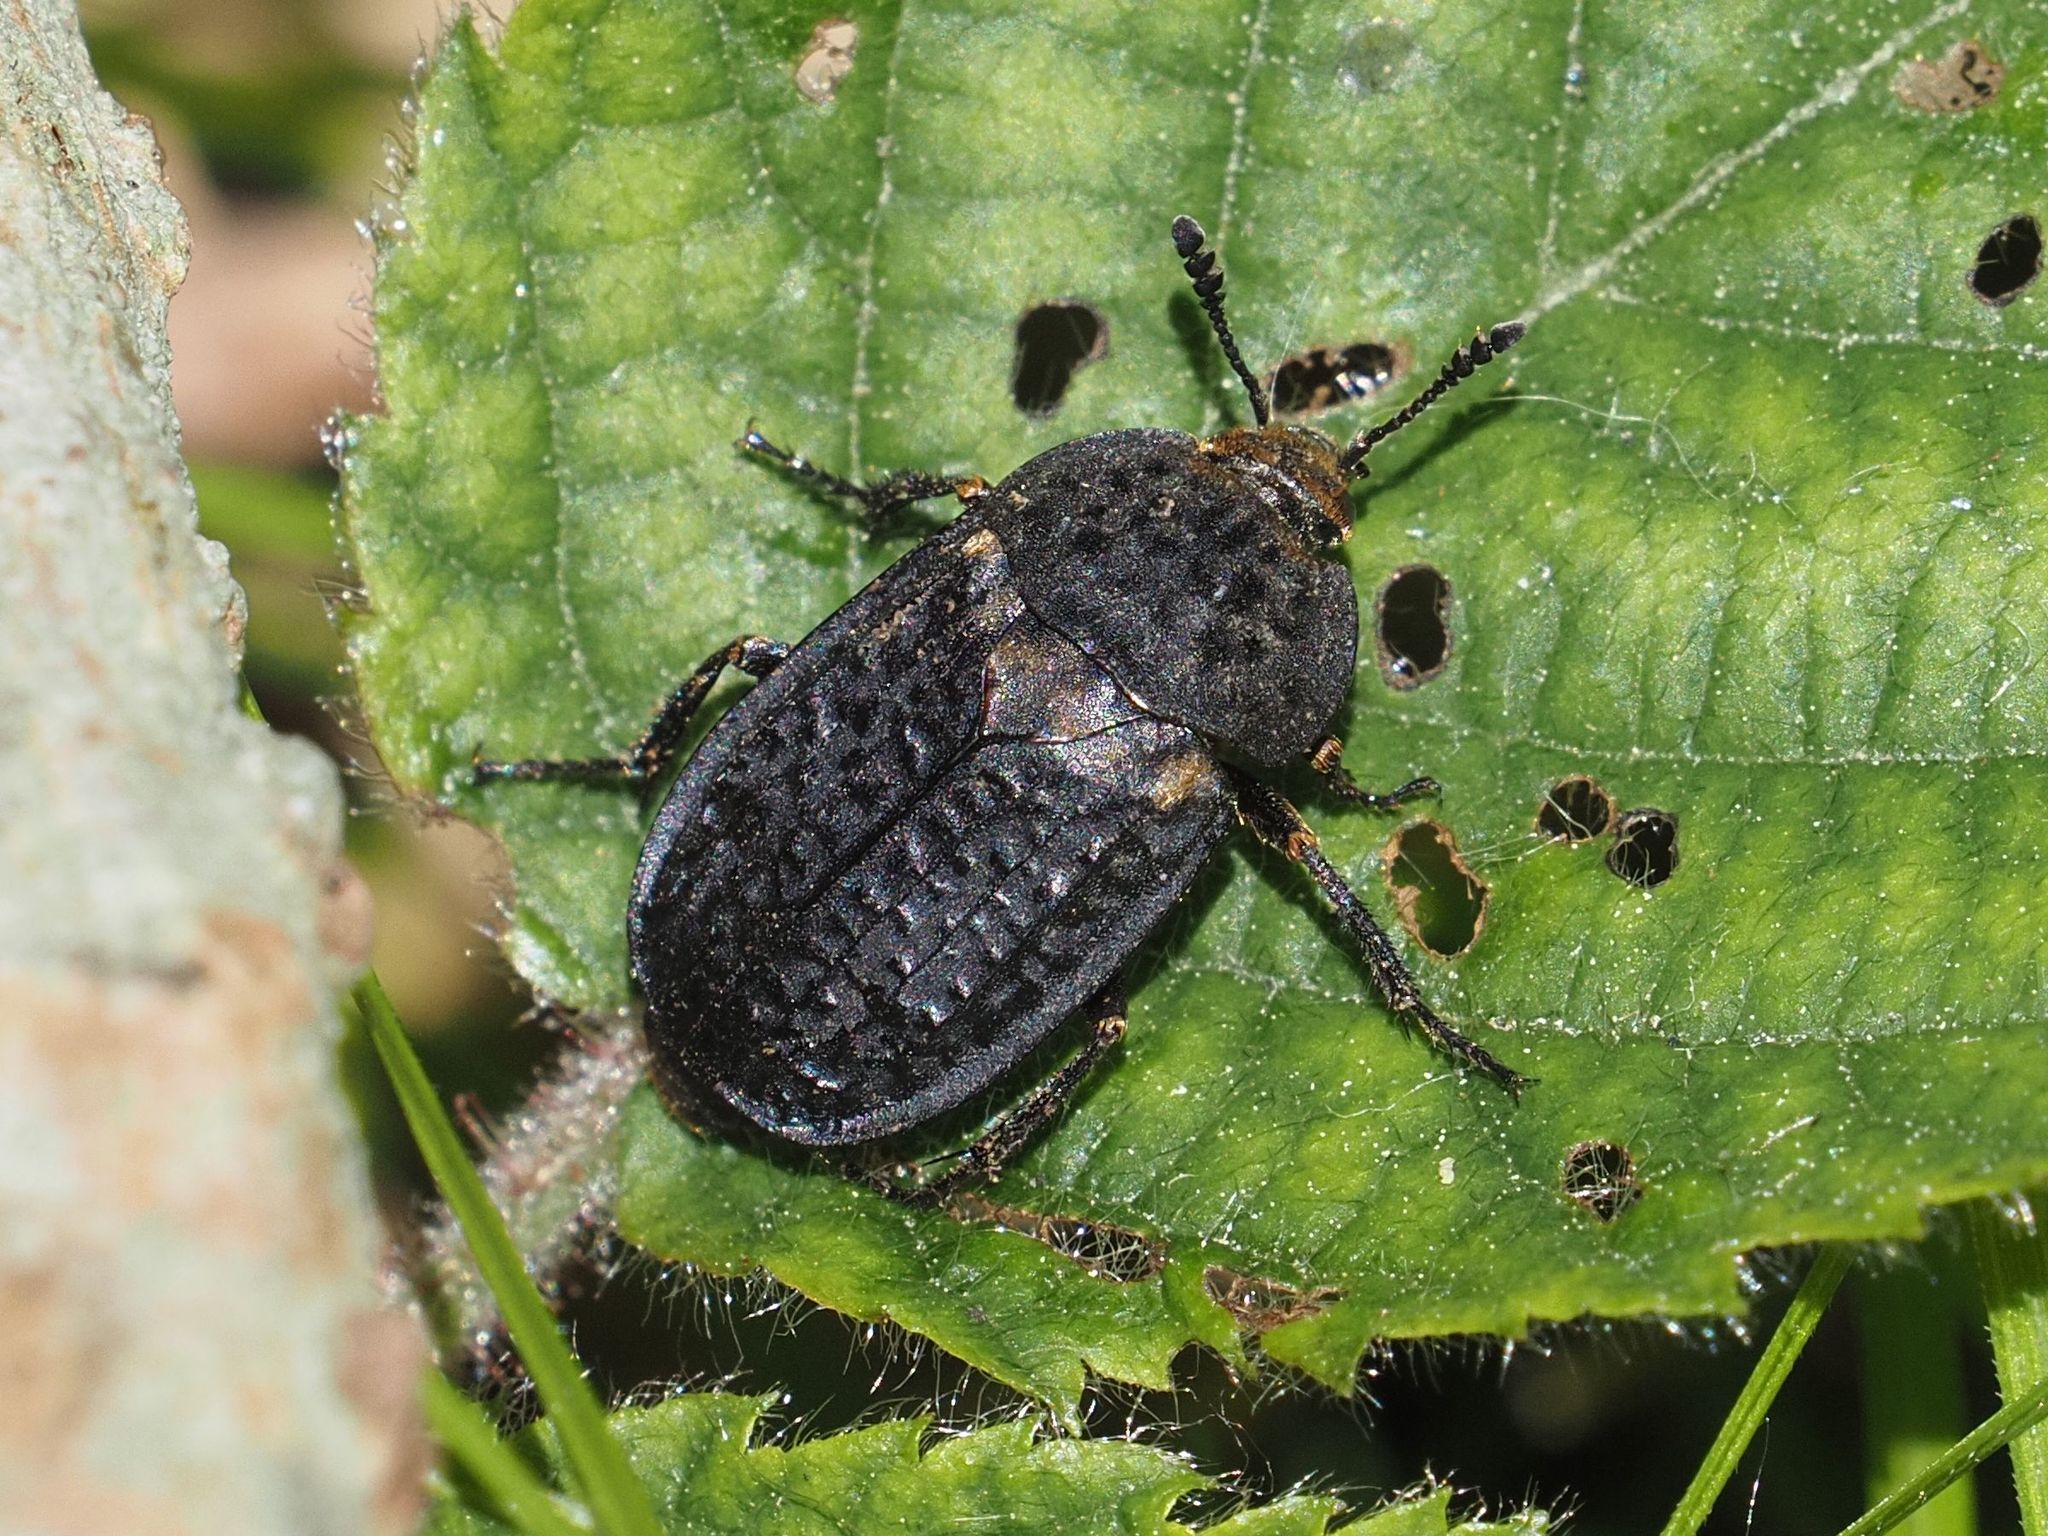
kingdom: Animalia
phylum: Arthropoda
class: Insecta
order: Coleoptera
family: Staphylinidae
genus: Thanatophilus
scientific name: Thanatophilus rugosus
